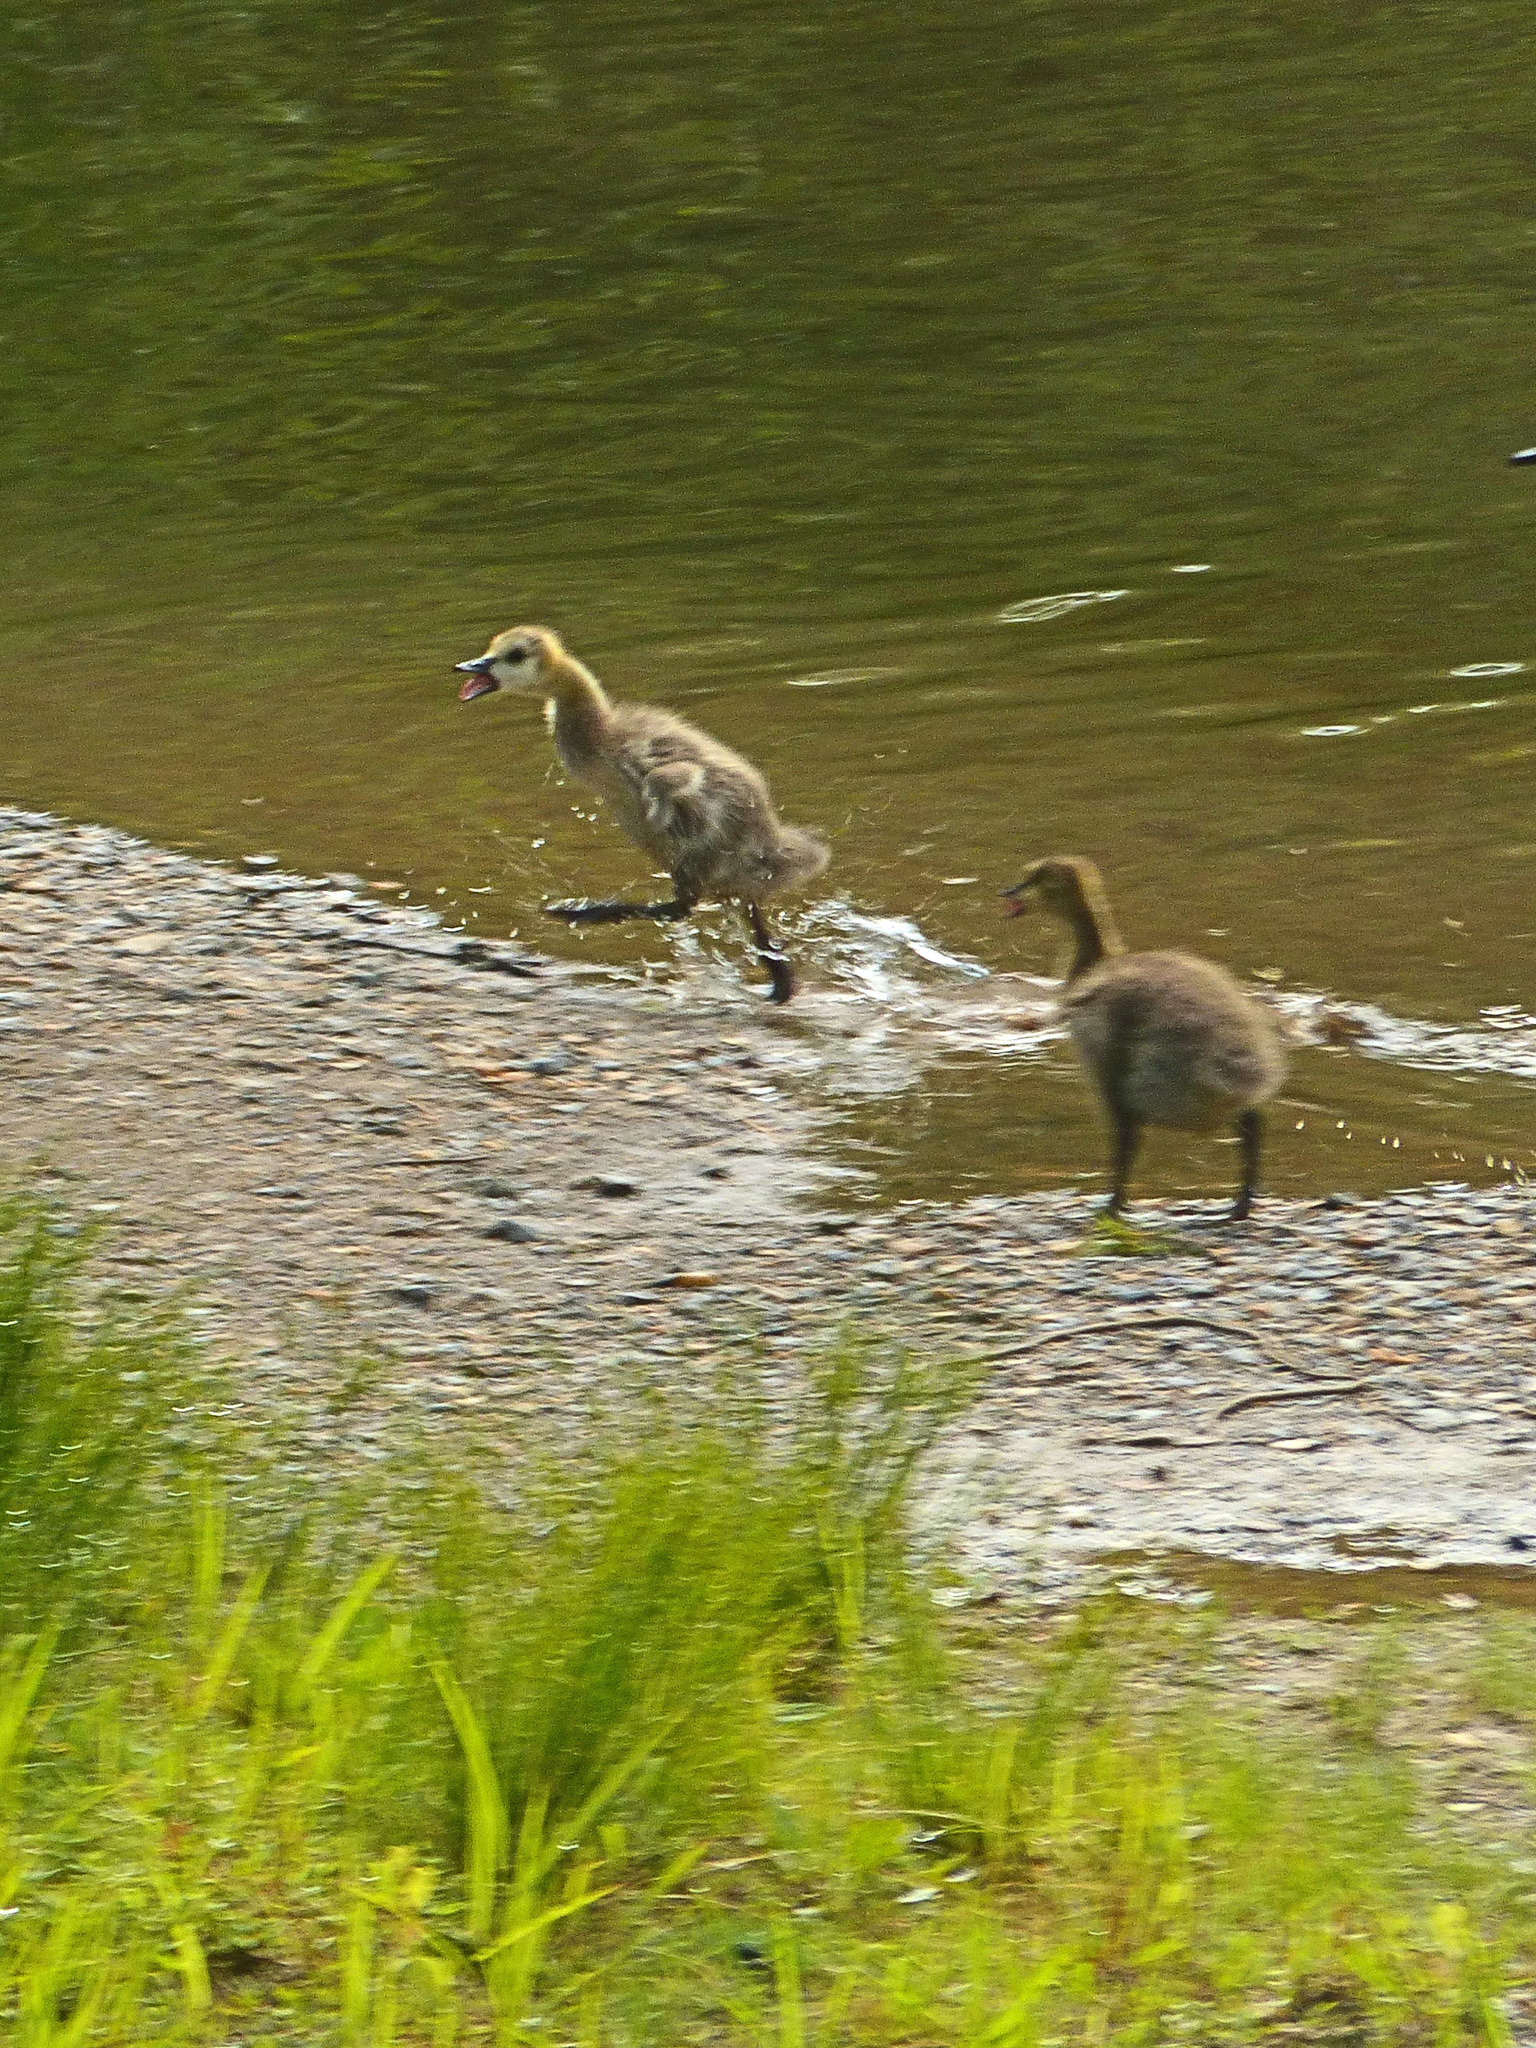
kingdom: Animalia
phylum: Chordata
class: Aves
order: Anseriformes
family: Anatidae
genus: Branta
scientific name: Branta canadensis
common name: Canada goose
